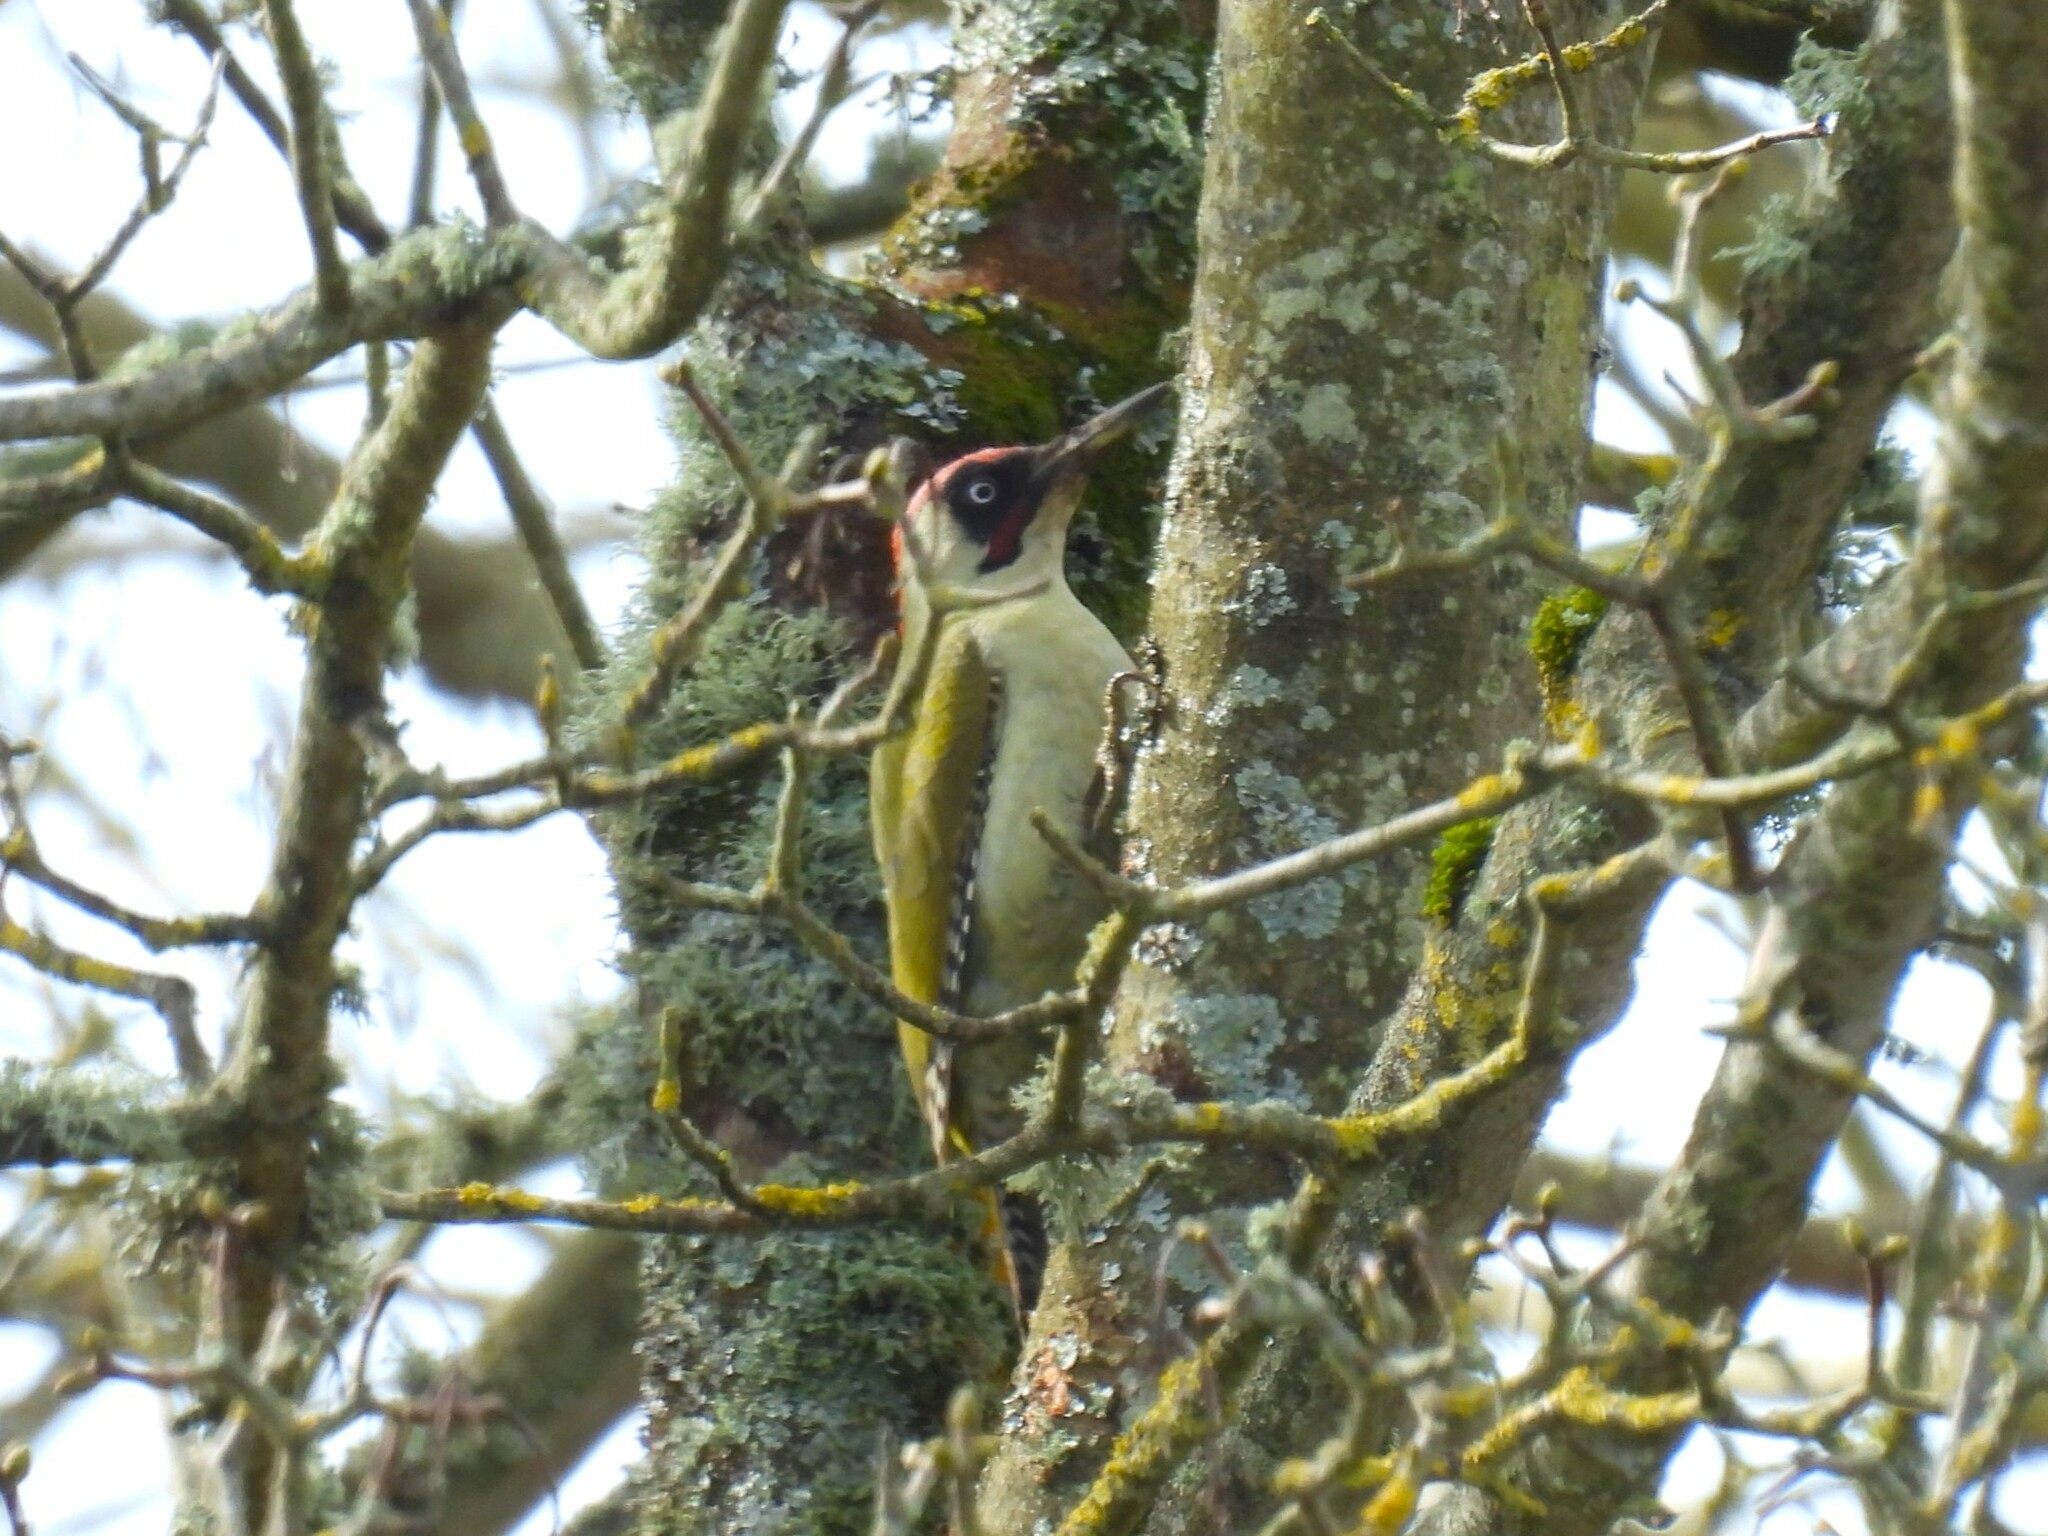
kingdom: Animalia
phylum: Chordata
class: Aves
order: Piciformes
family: Picidae
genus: Picus
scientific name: Picus viridis
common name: European green woodpecker
